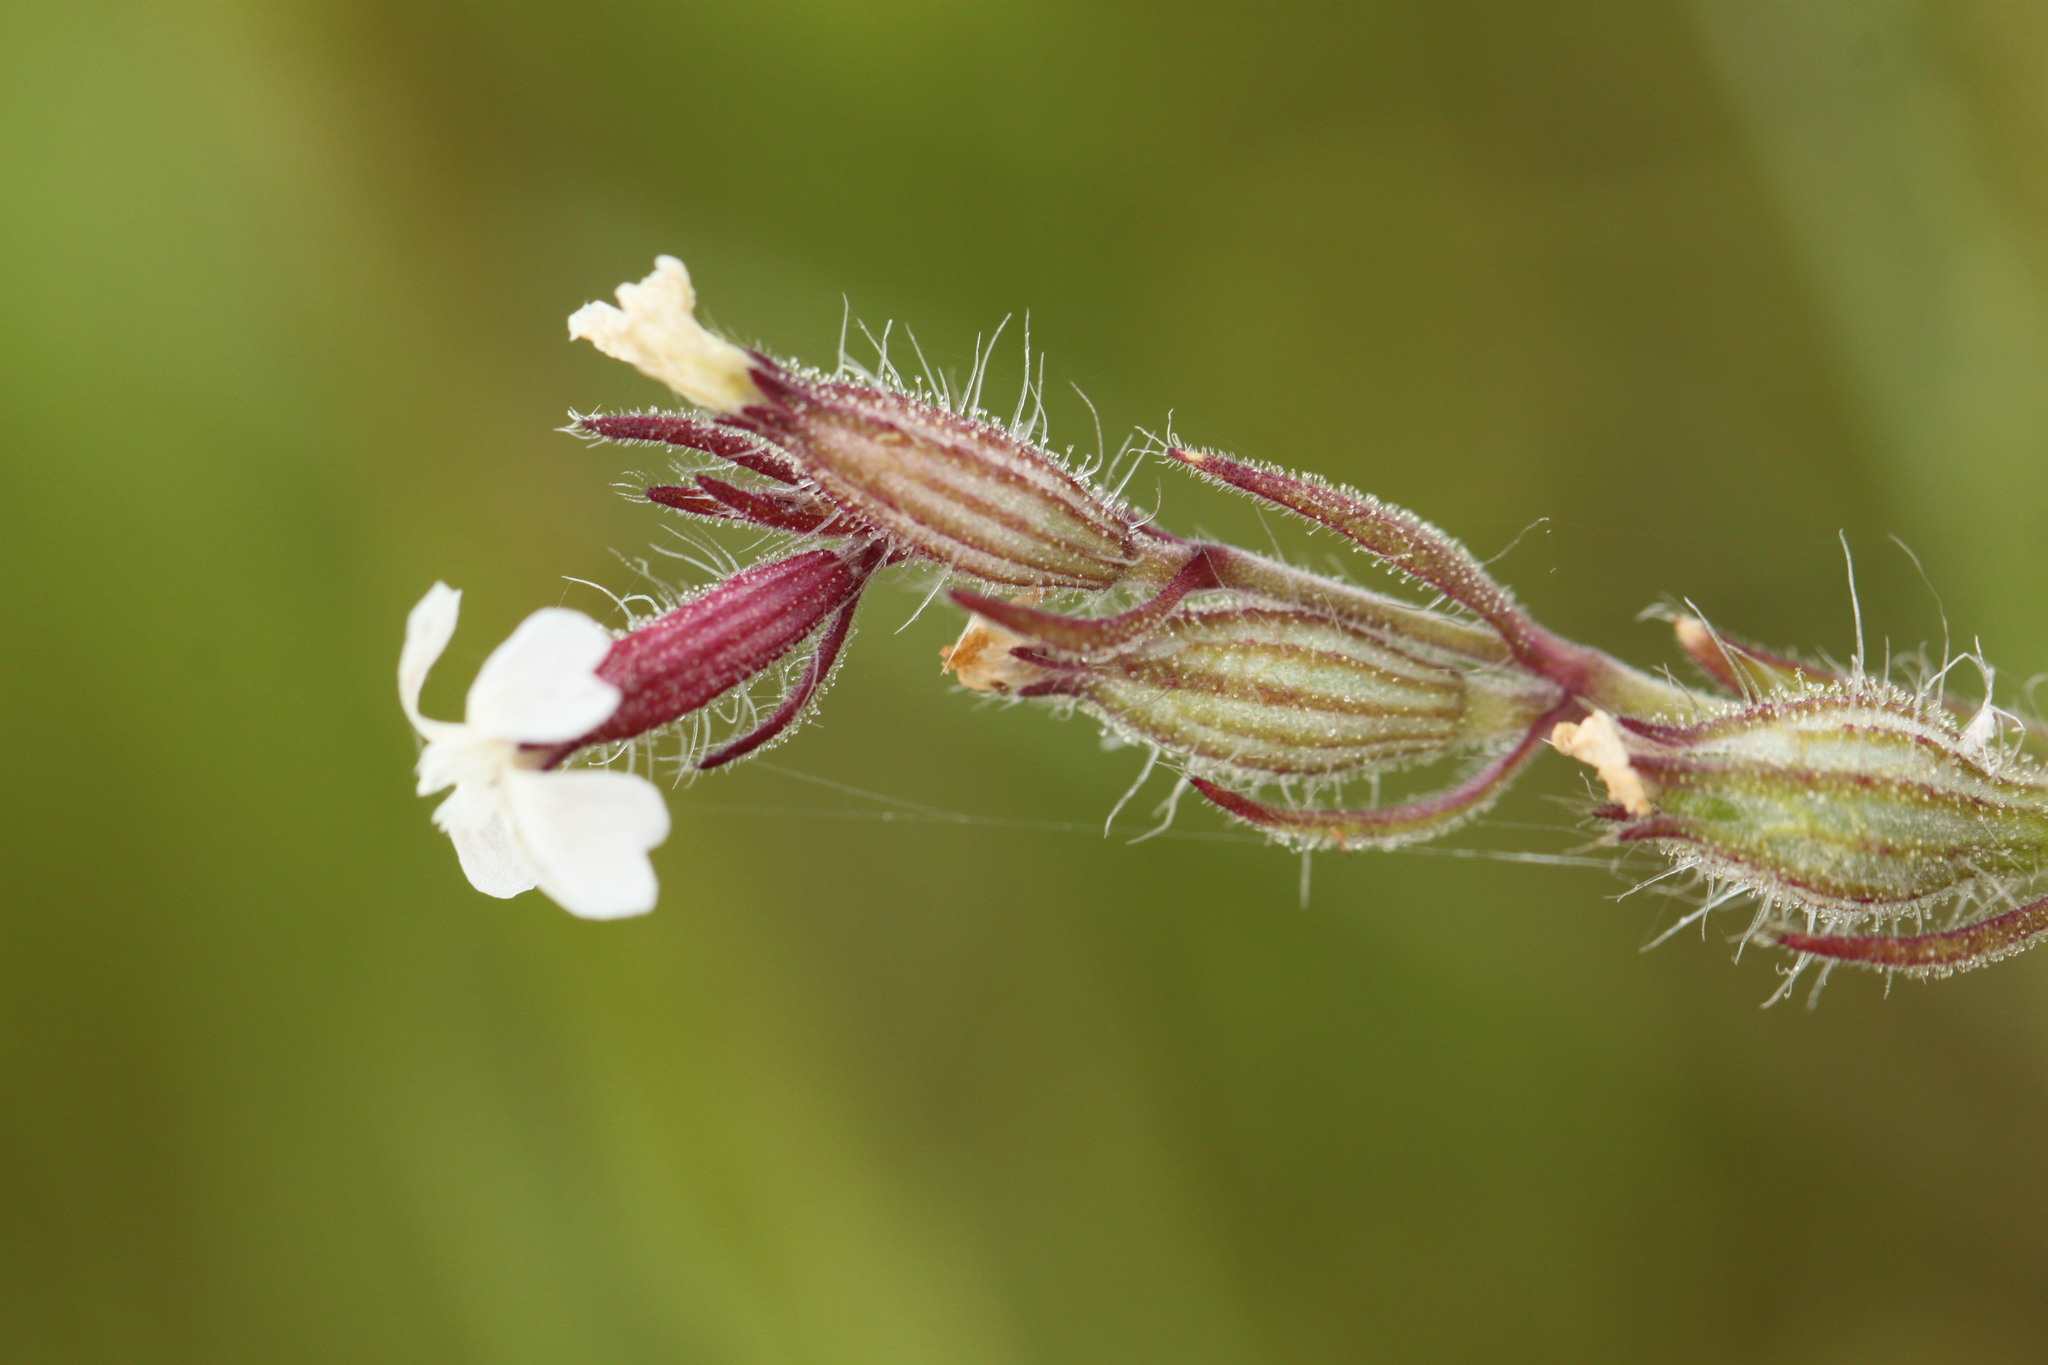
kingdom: Plantae
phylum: Tracheophyta
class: Magnoliopsida
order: Caryophyllales
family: Caryophyllaceae
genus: Silene
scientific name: Silene gallica
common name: Small-flowered catchfly
